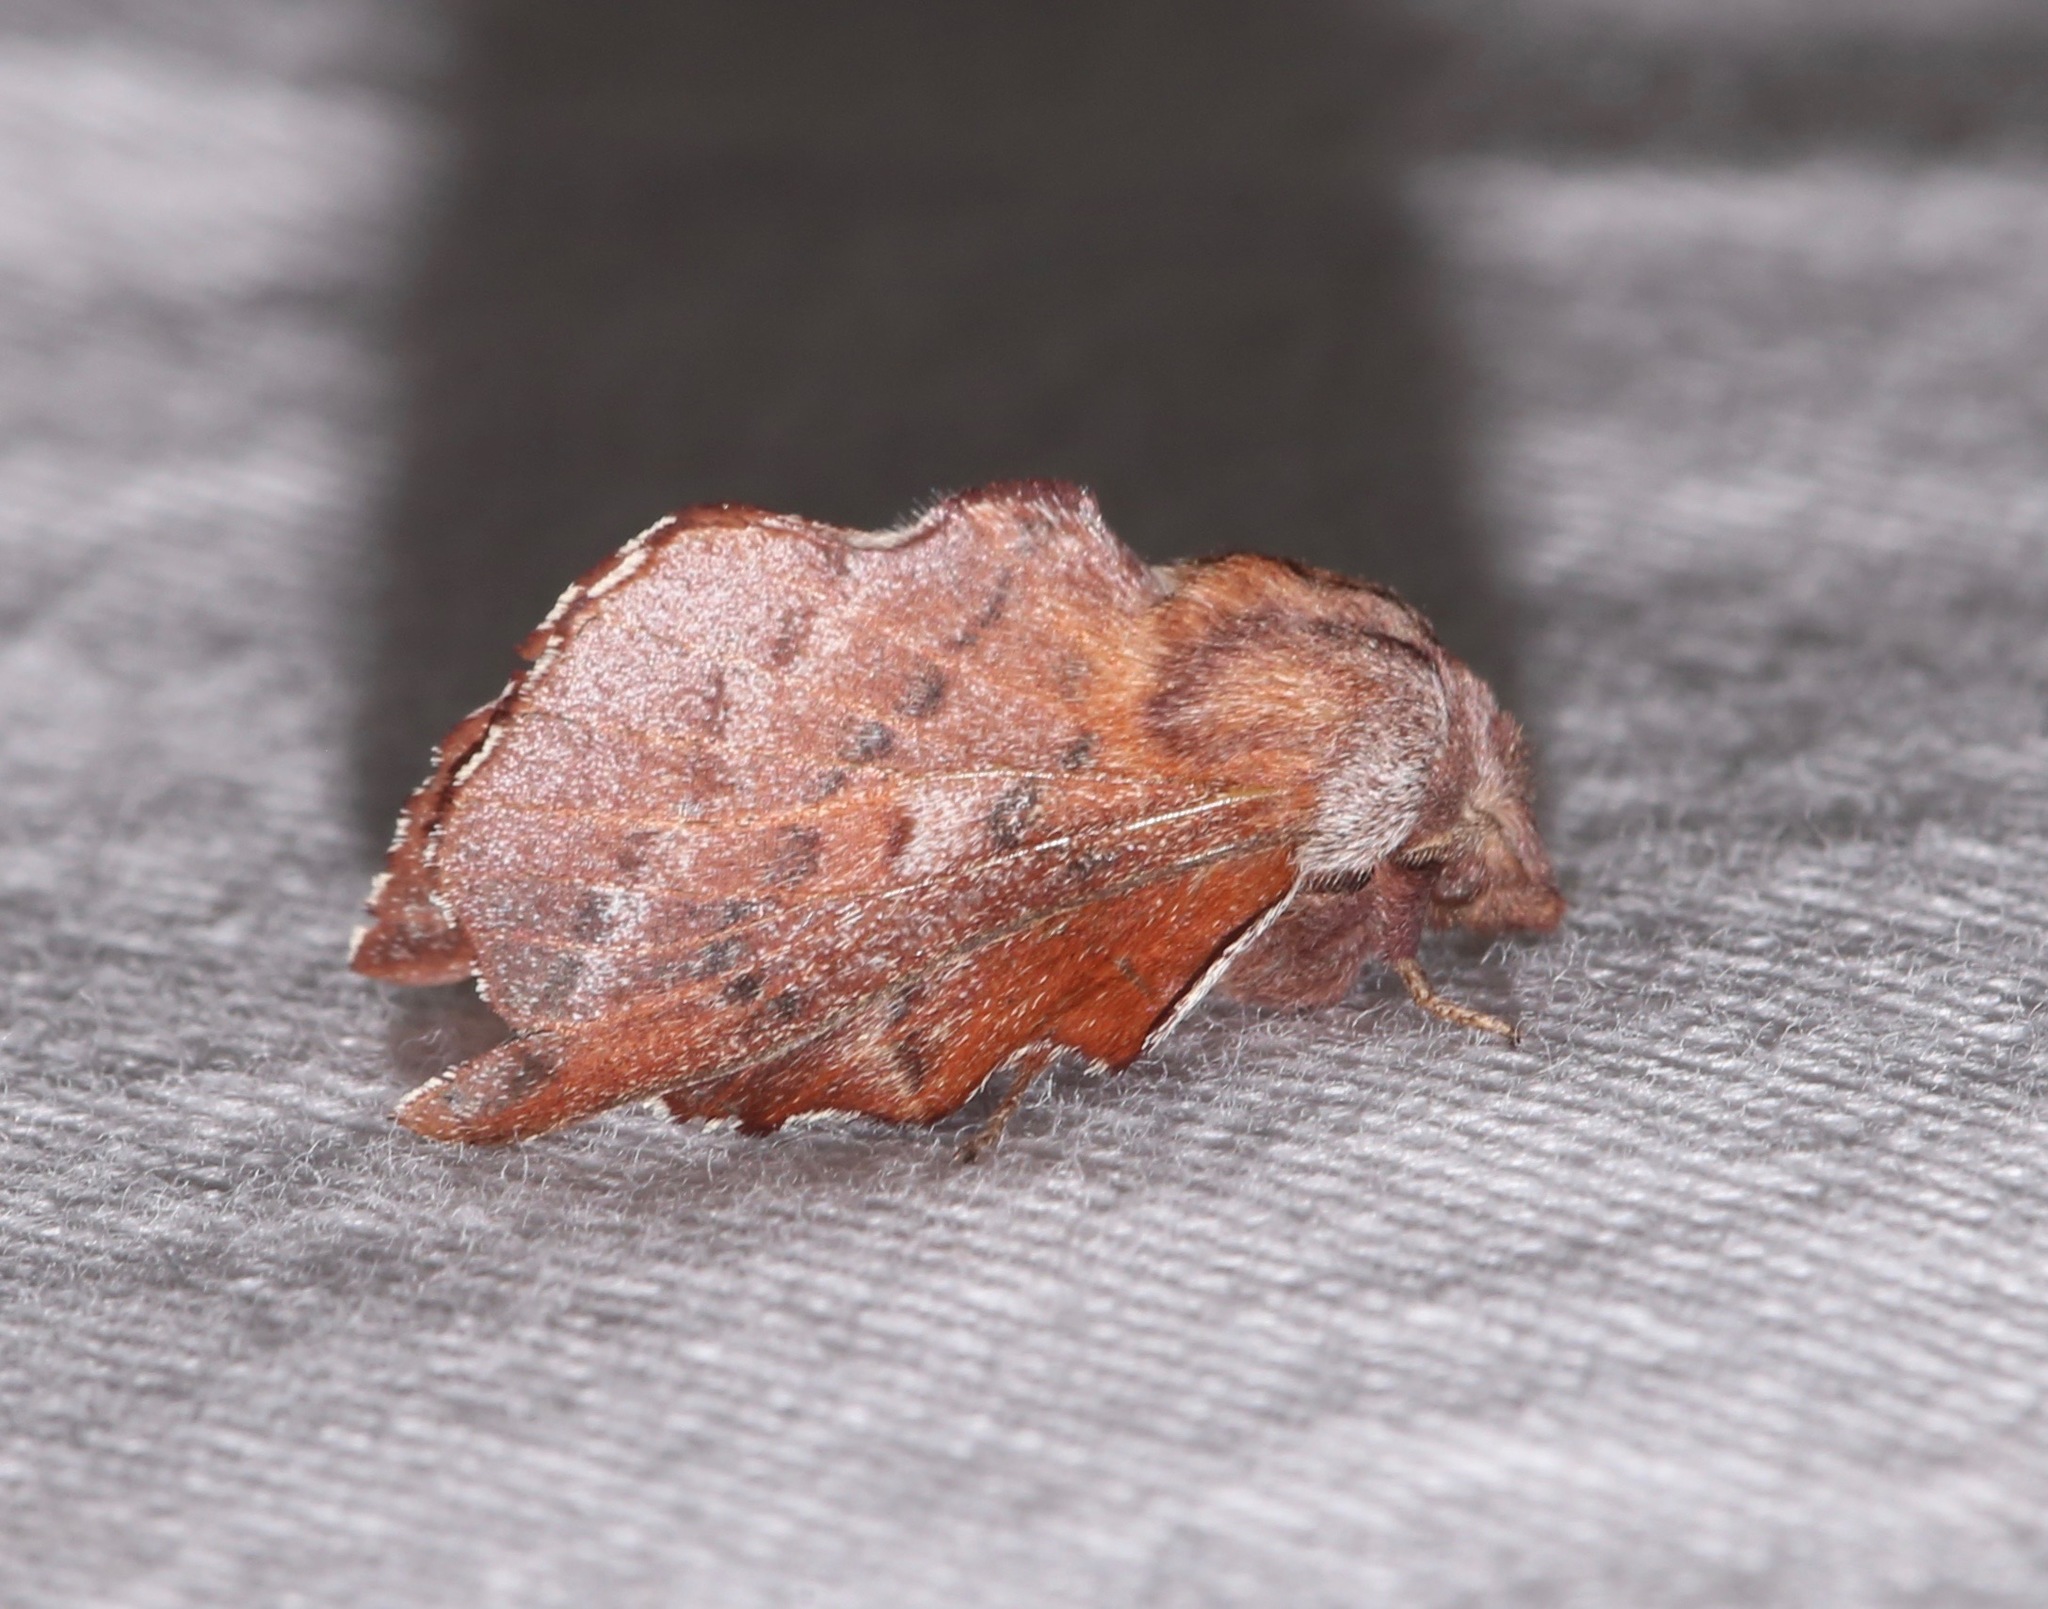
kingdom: Animalia
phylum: Arthropoda
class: Insecta
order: Lepidoptera
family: Lasiocampidae
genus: Phyllodesma
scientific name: Phyllodesma americana
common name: American lappet moth
